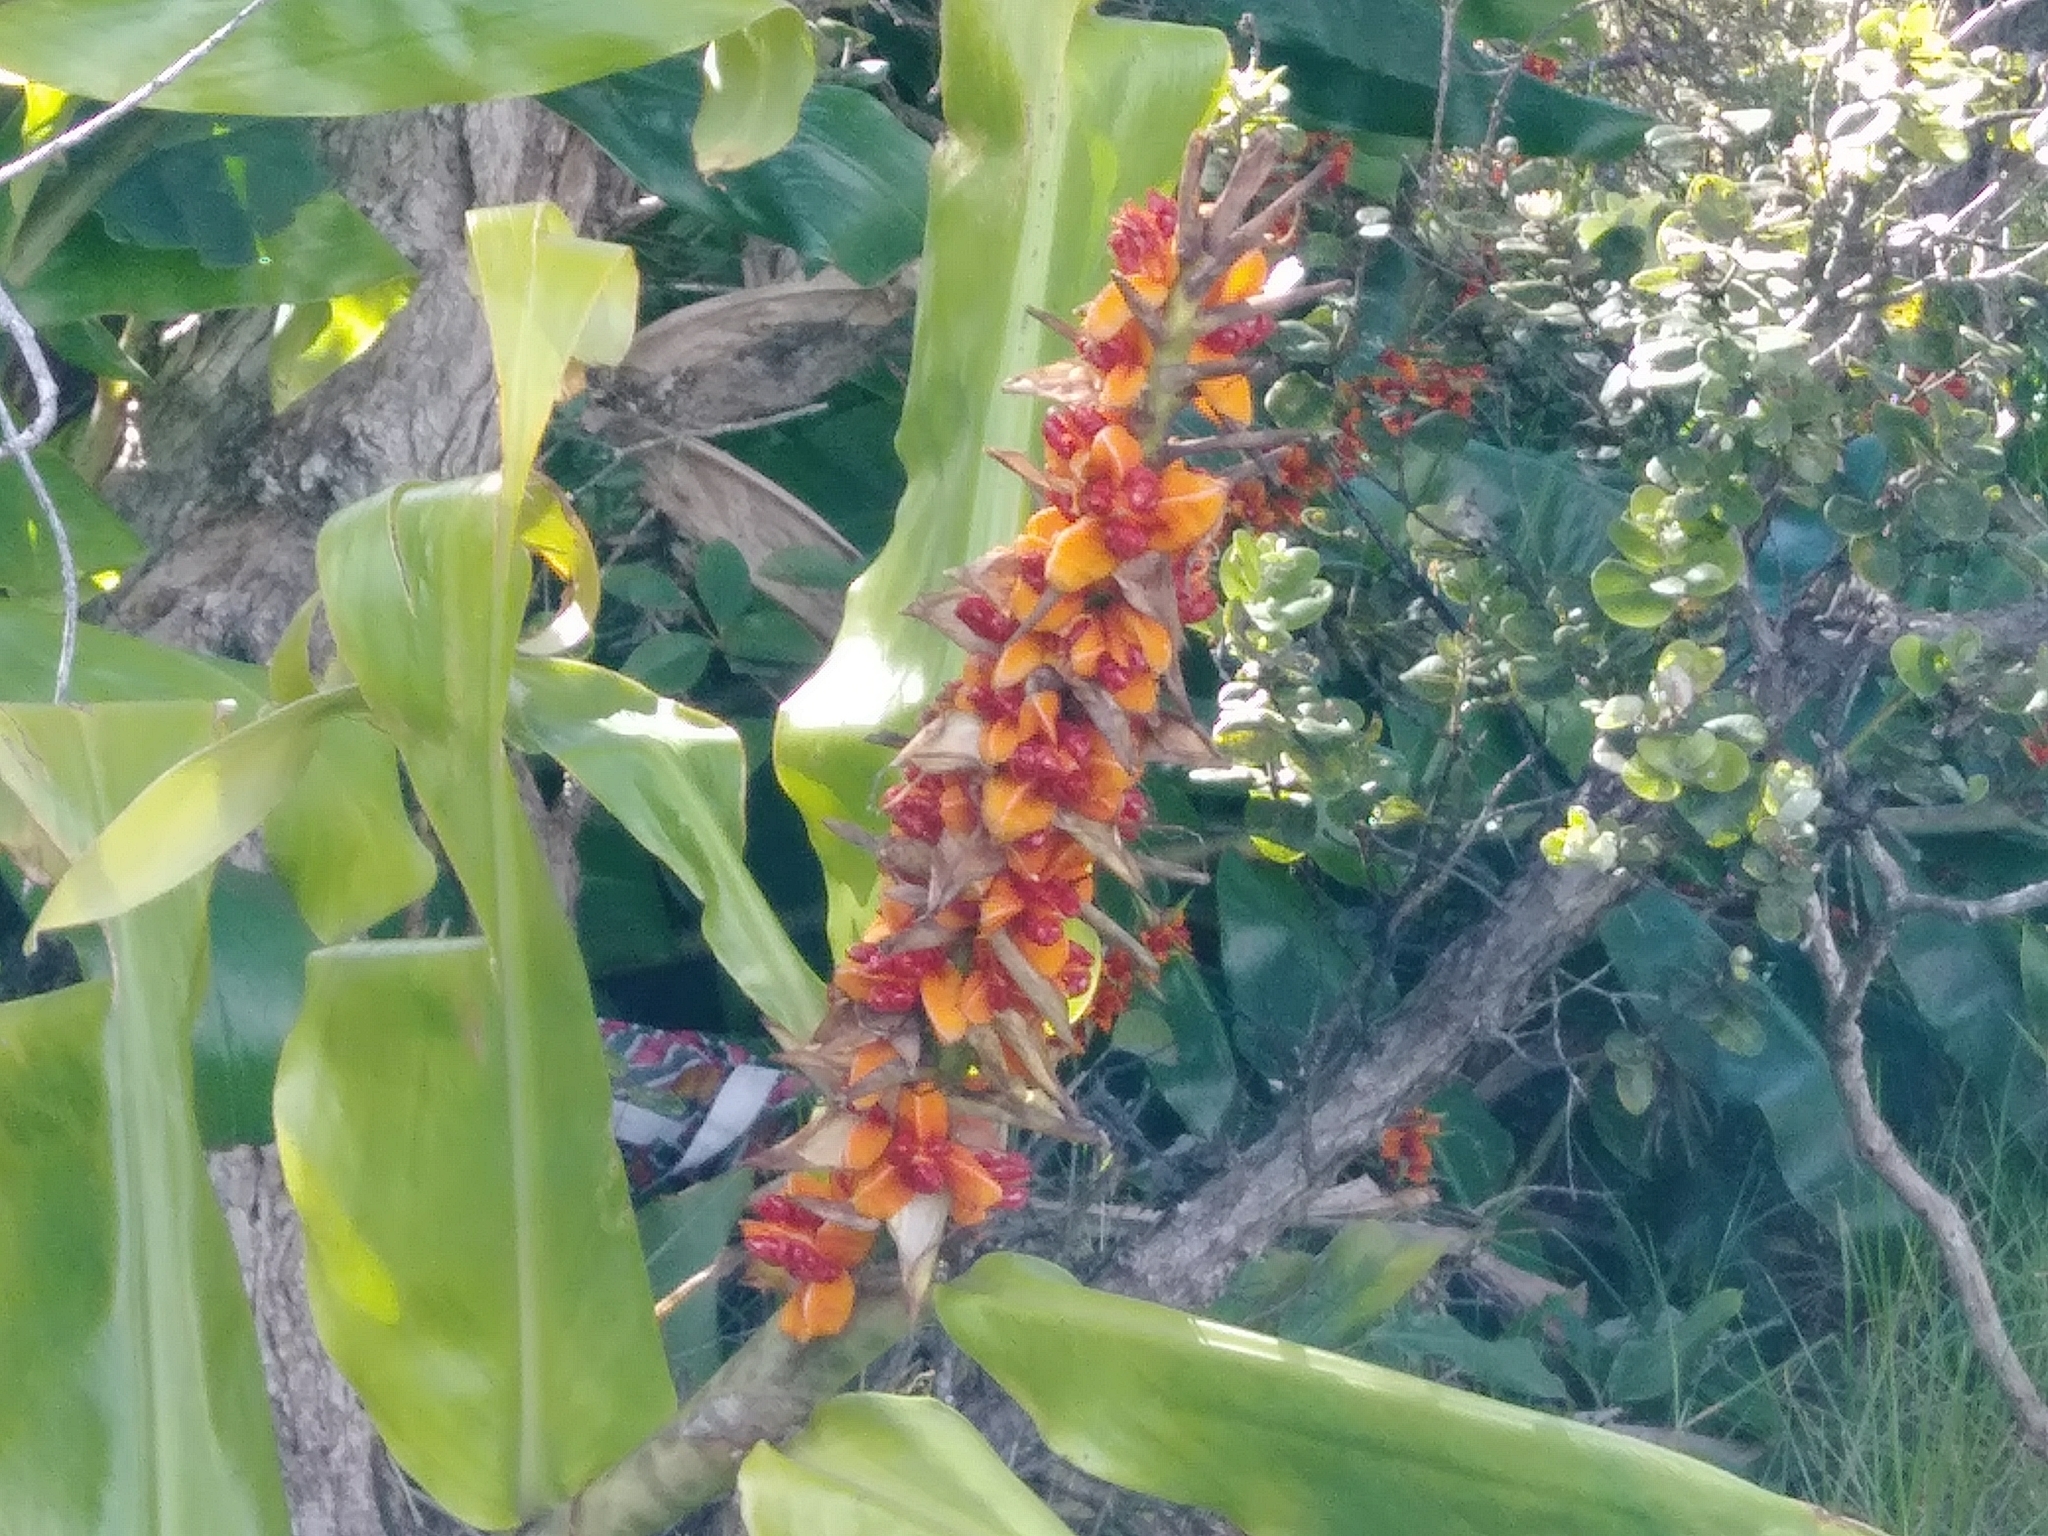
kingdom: Plantae
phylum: Tracheophyta
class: Liliopsida
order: Zingiberales
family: Zingiberaceae
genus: Hedychium
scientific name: Hedychium gardnerianum
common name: Himalayan ginger
